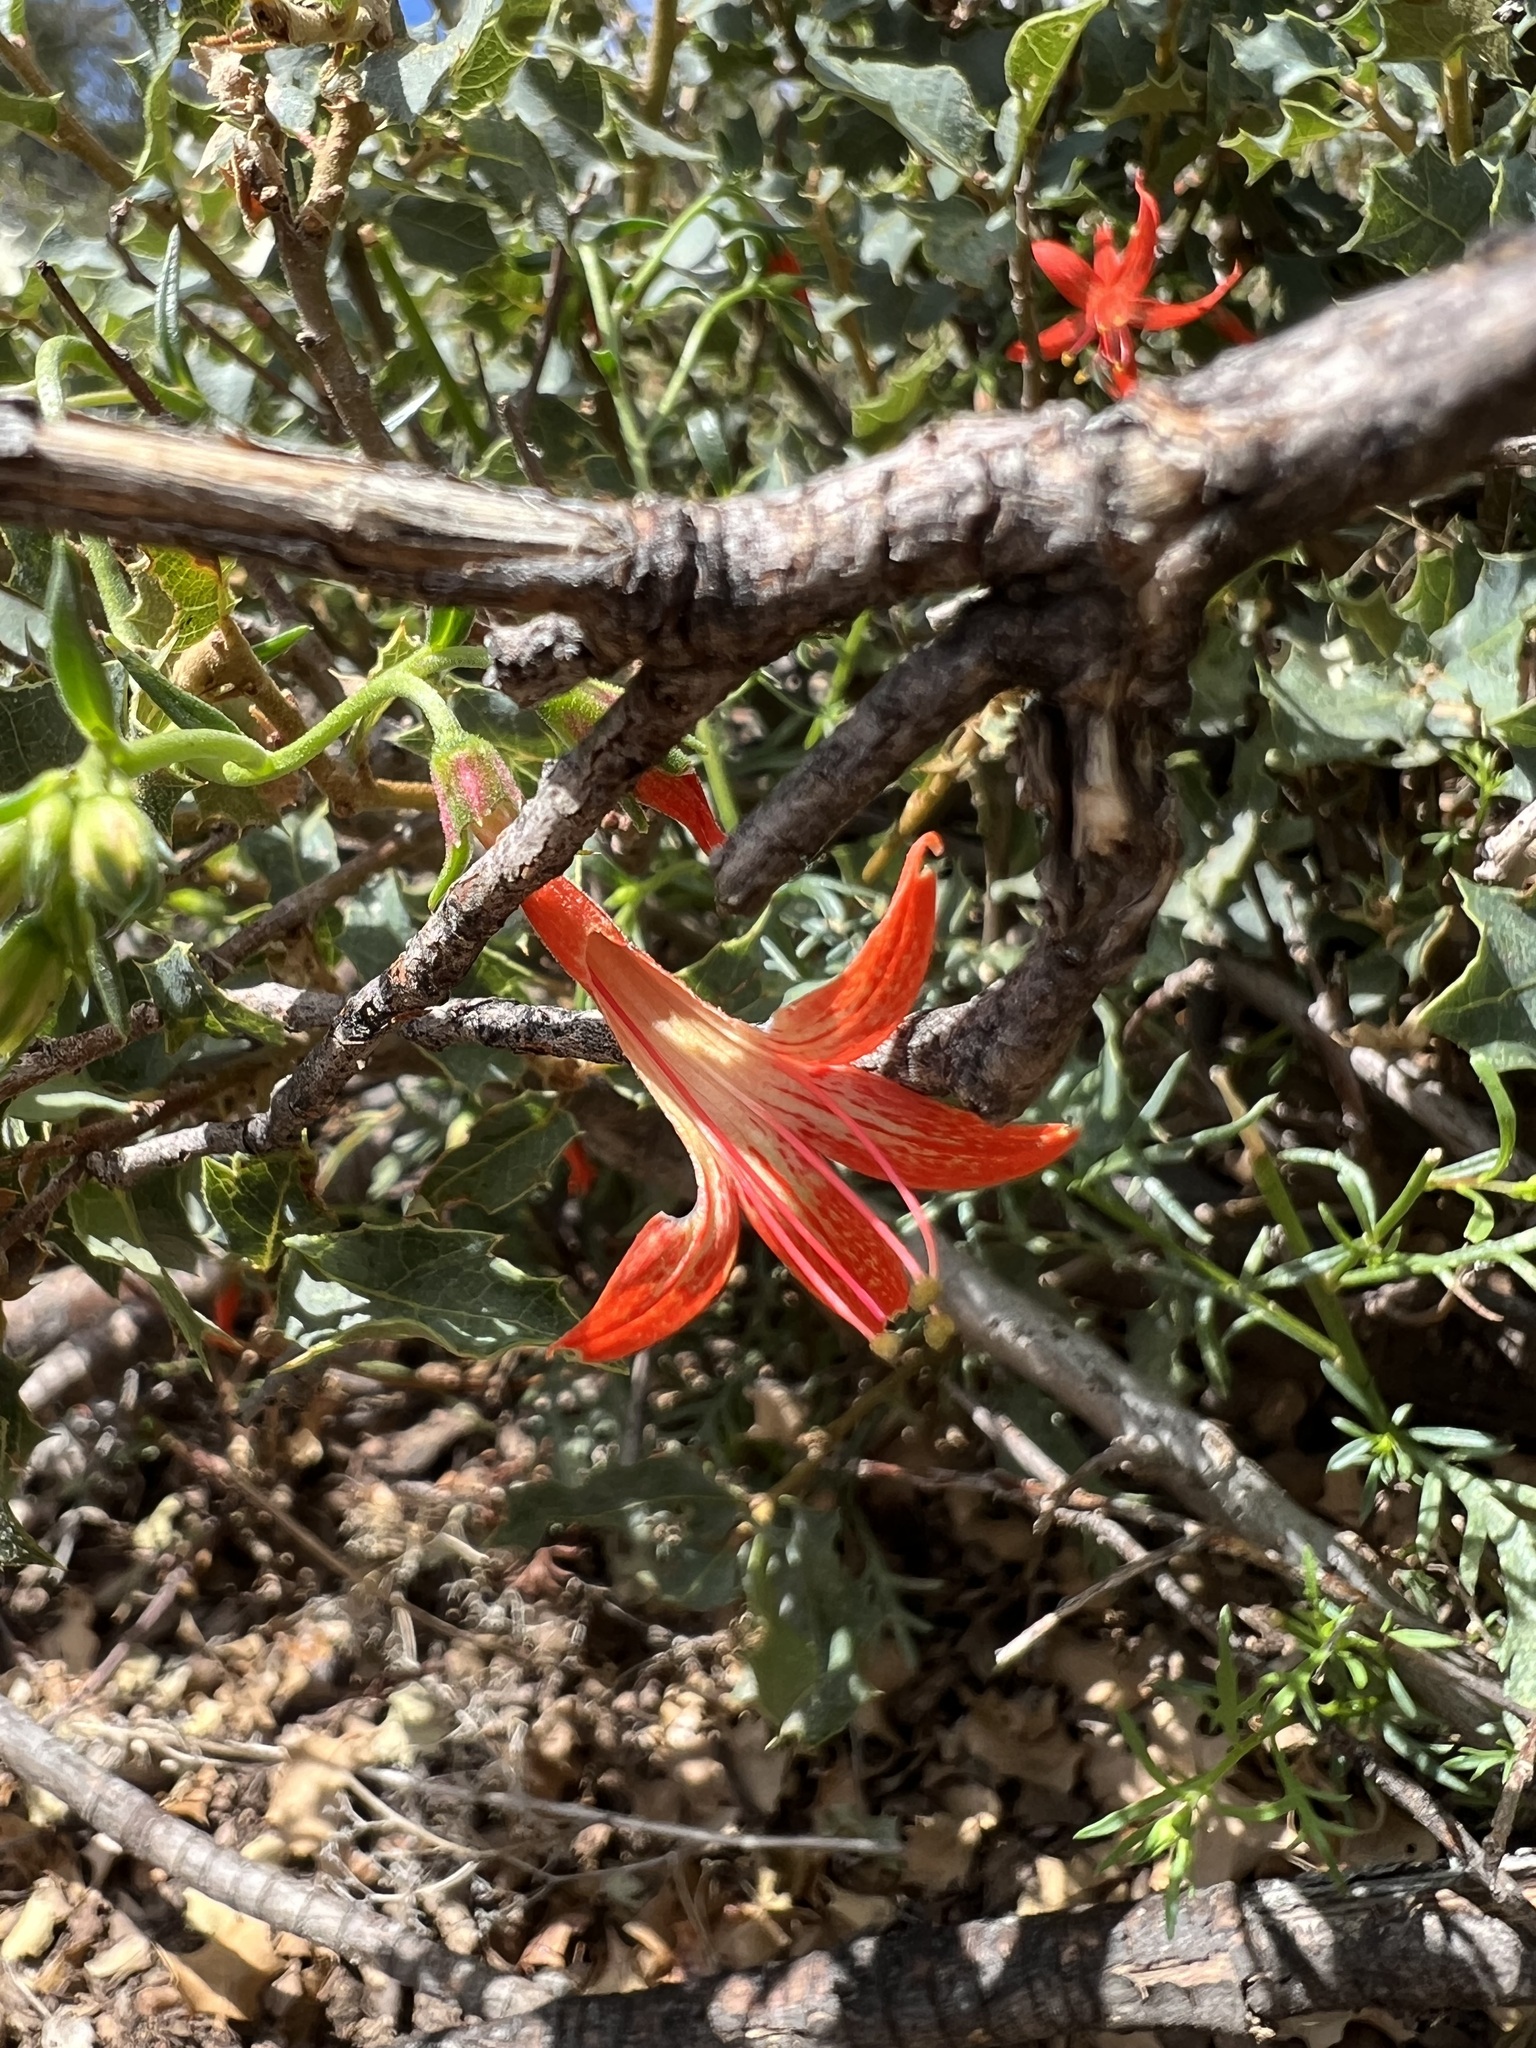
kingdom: Plantae
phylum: Tracheophyta
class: Magnoliopsida
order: Ericales
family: Polemoniaceae
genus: Ipomopsis
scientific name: Ipomopsis aggregata
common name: Scarlet gilia
